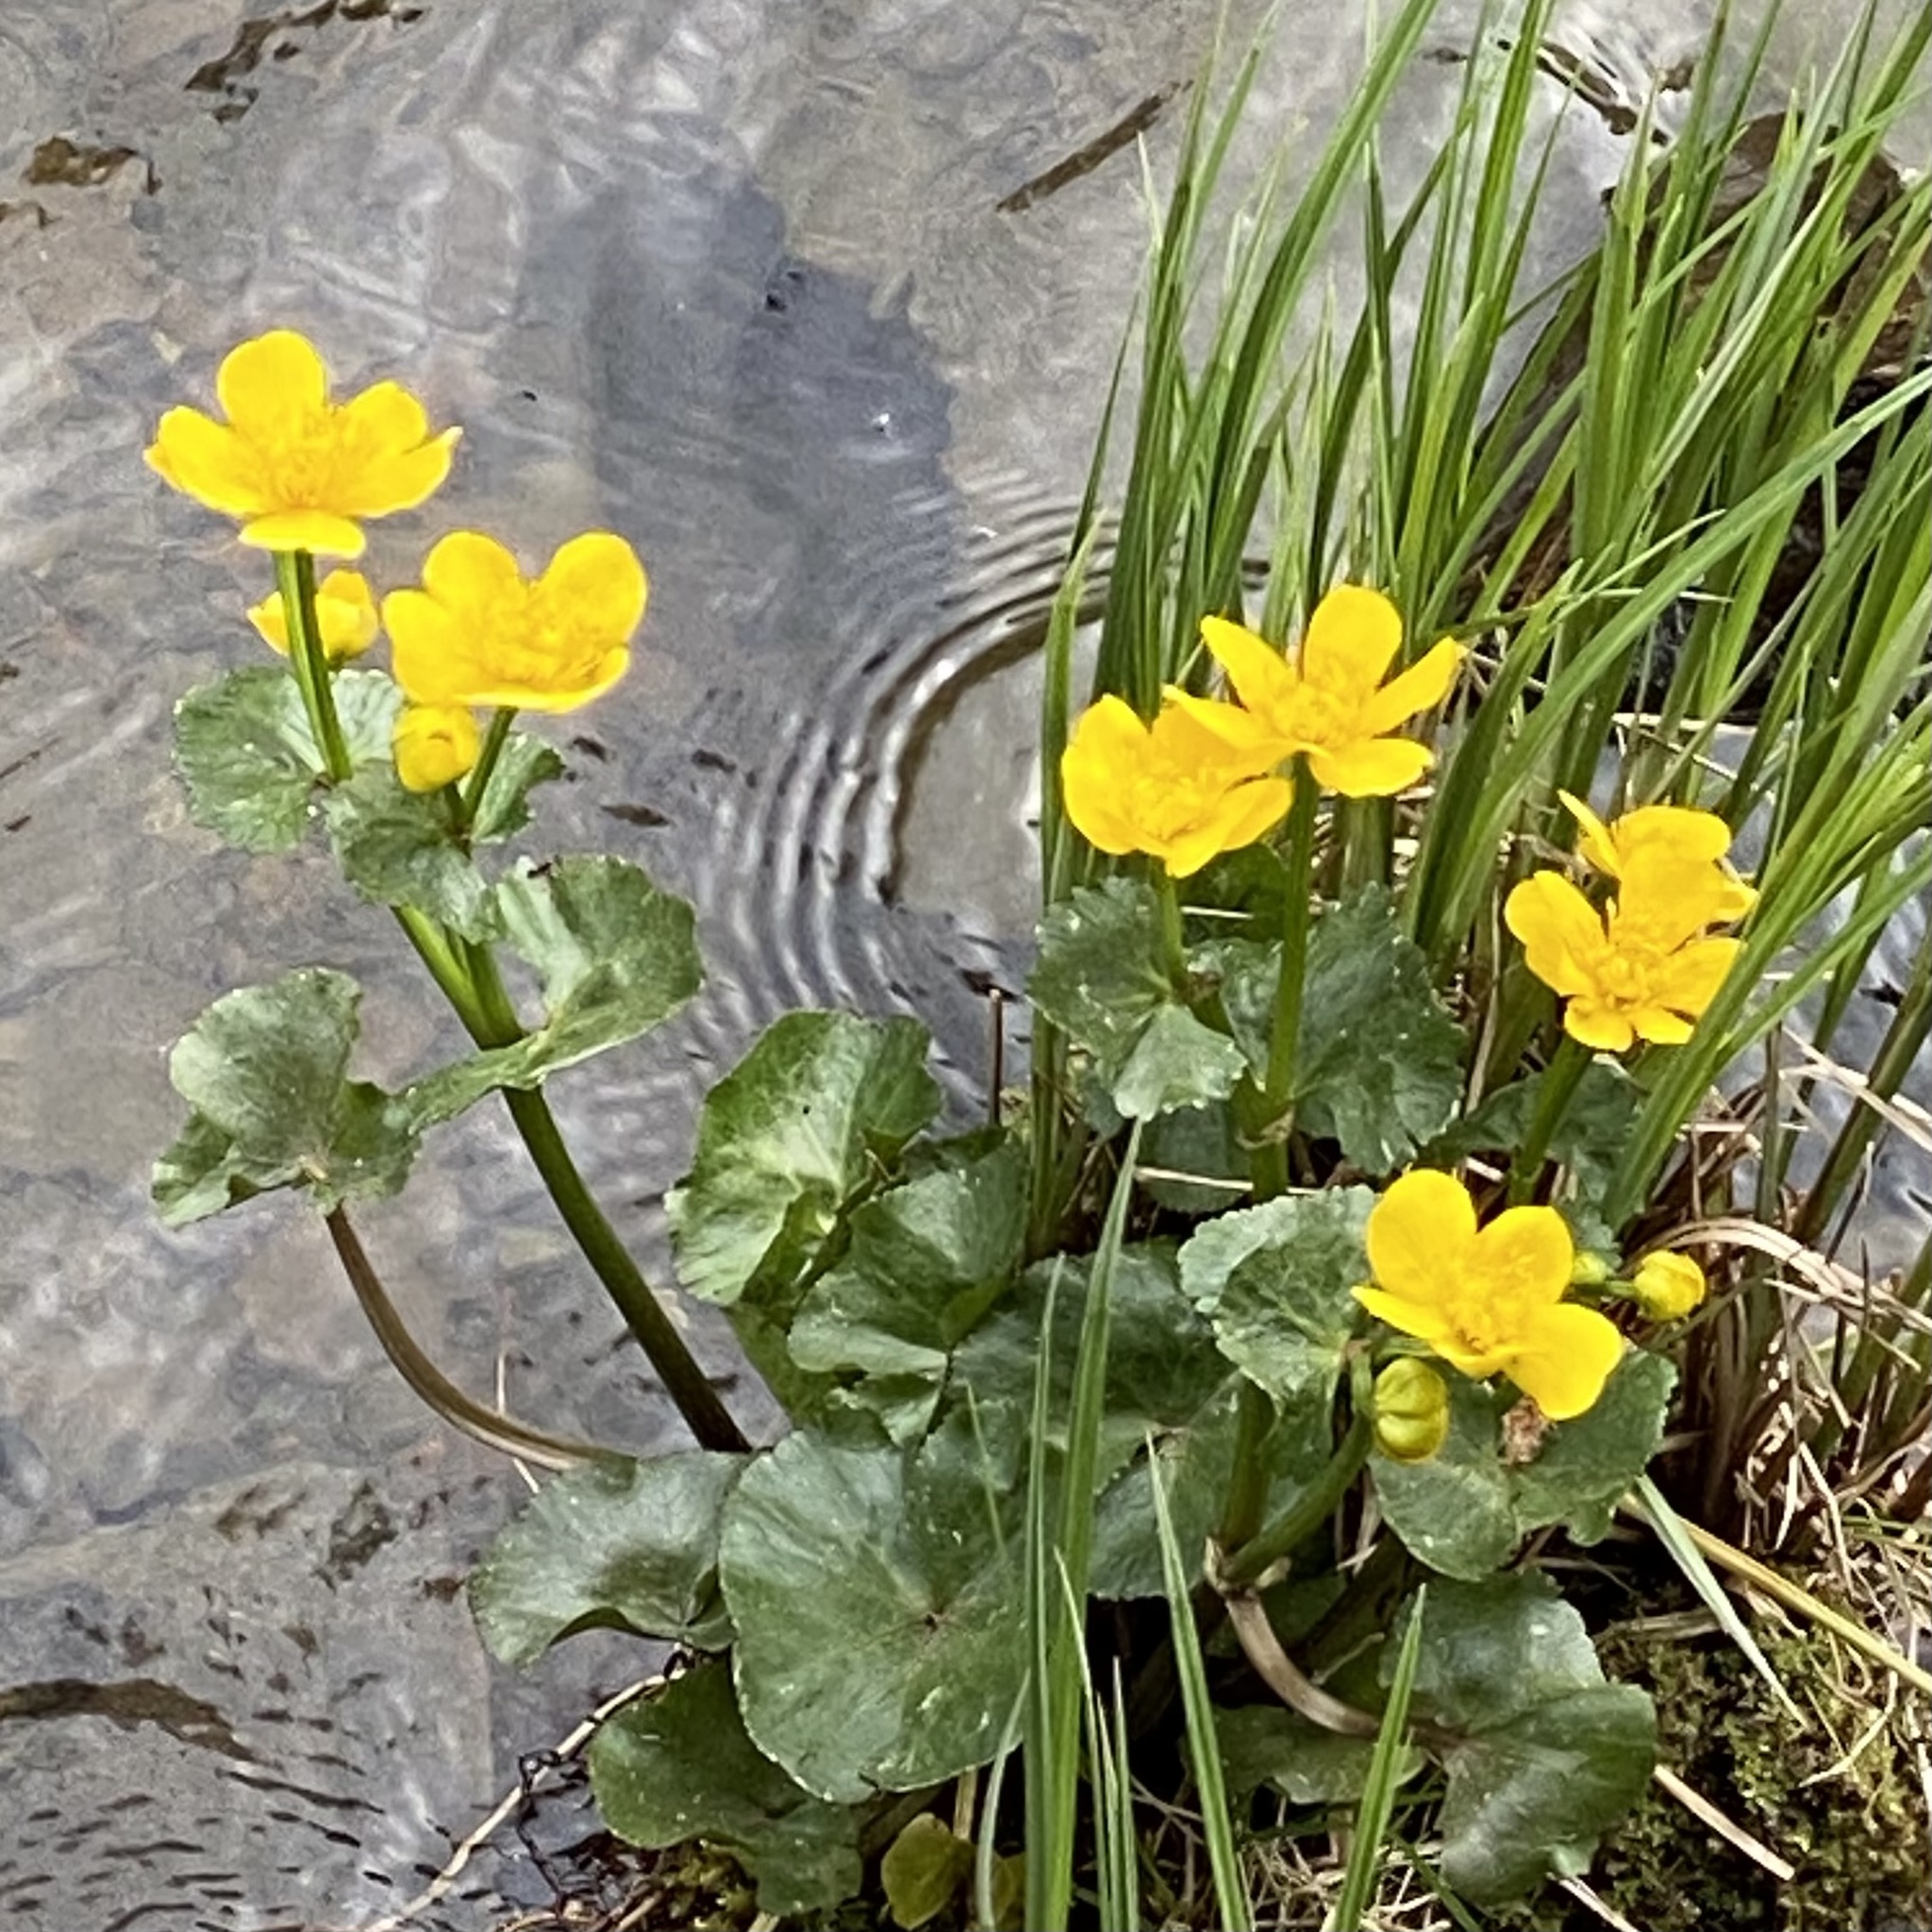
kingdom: Plantae
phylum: Tracheophyta
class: Magnoliopsida
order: Ranunculales
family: Ranunculaceae
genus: Caltha
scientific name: Caltha palustris
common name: Marsh marigold
